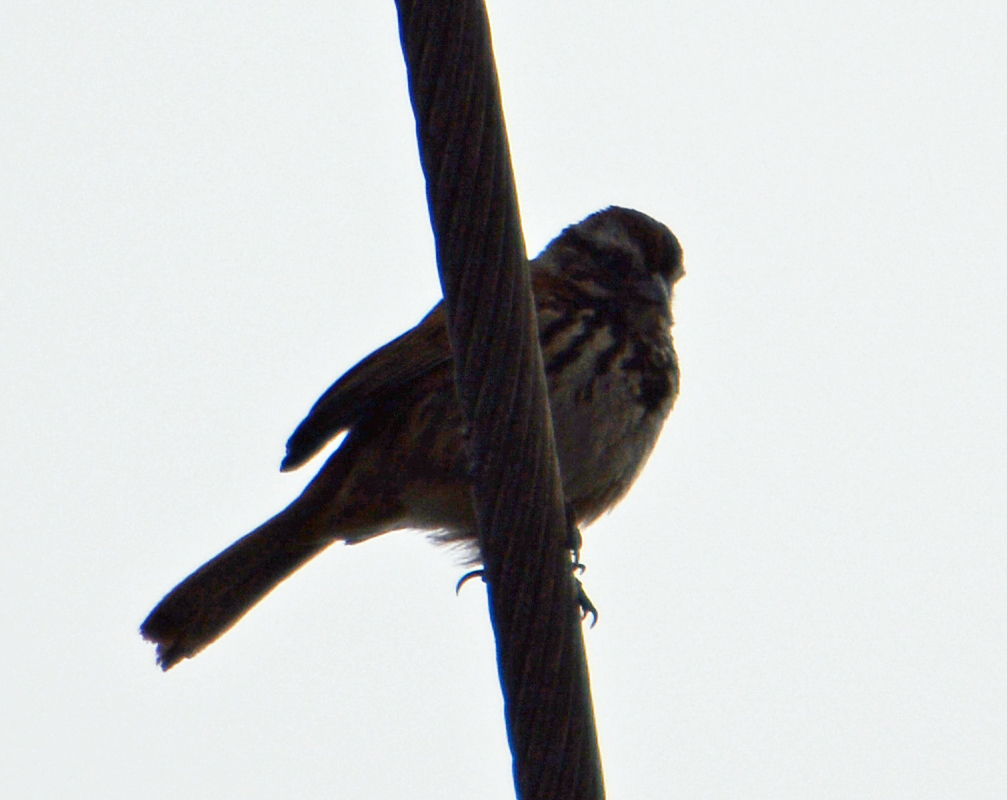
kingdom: Animalia
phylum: Chordata
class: Aves
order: Passeriformes
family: Passerellidae
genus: Melospiza
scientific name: Melospiza melodia
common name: Song sparrow
